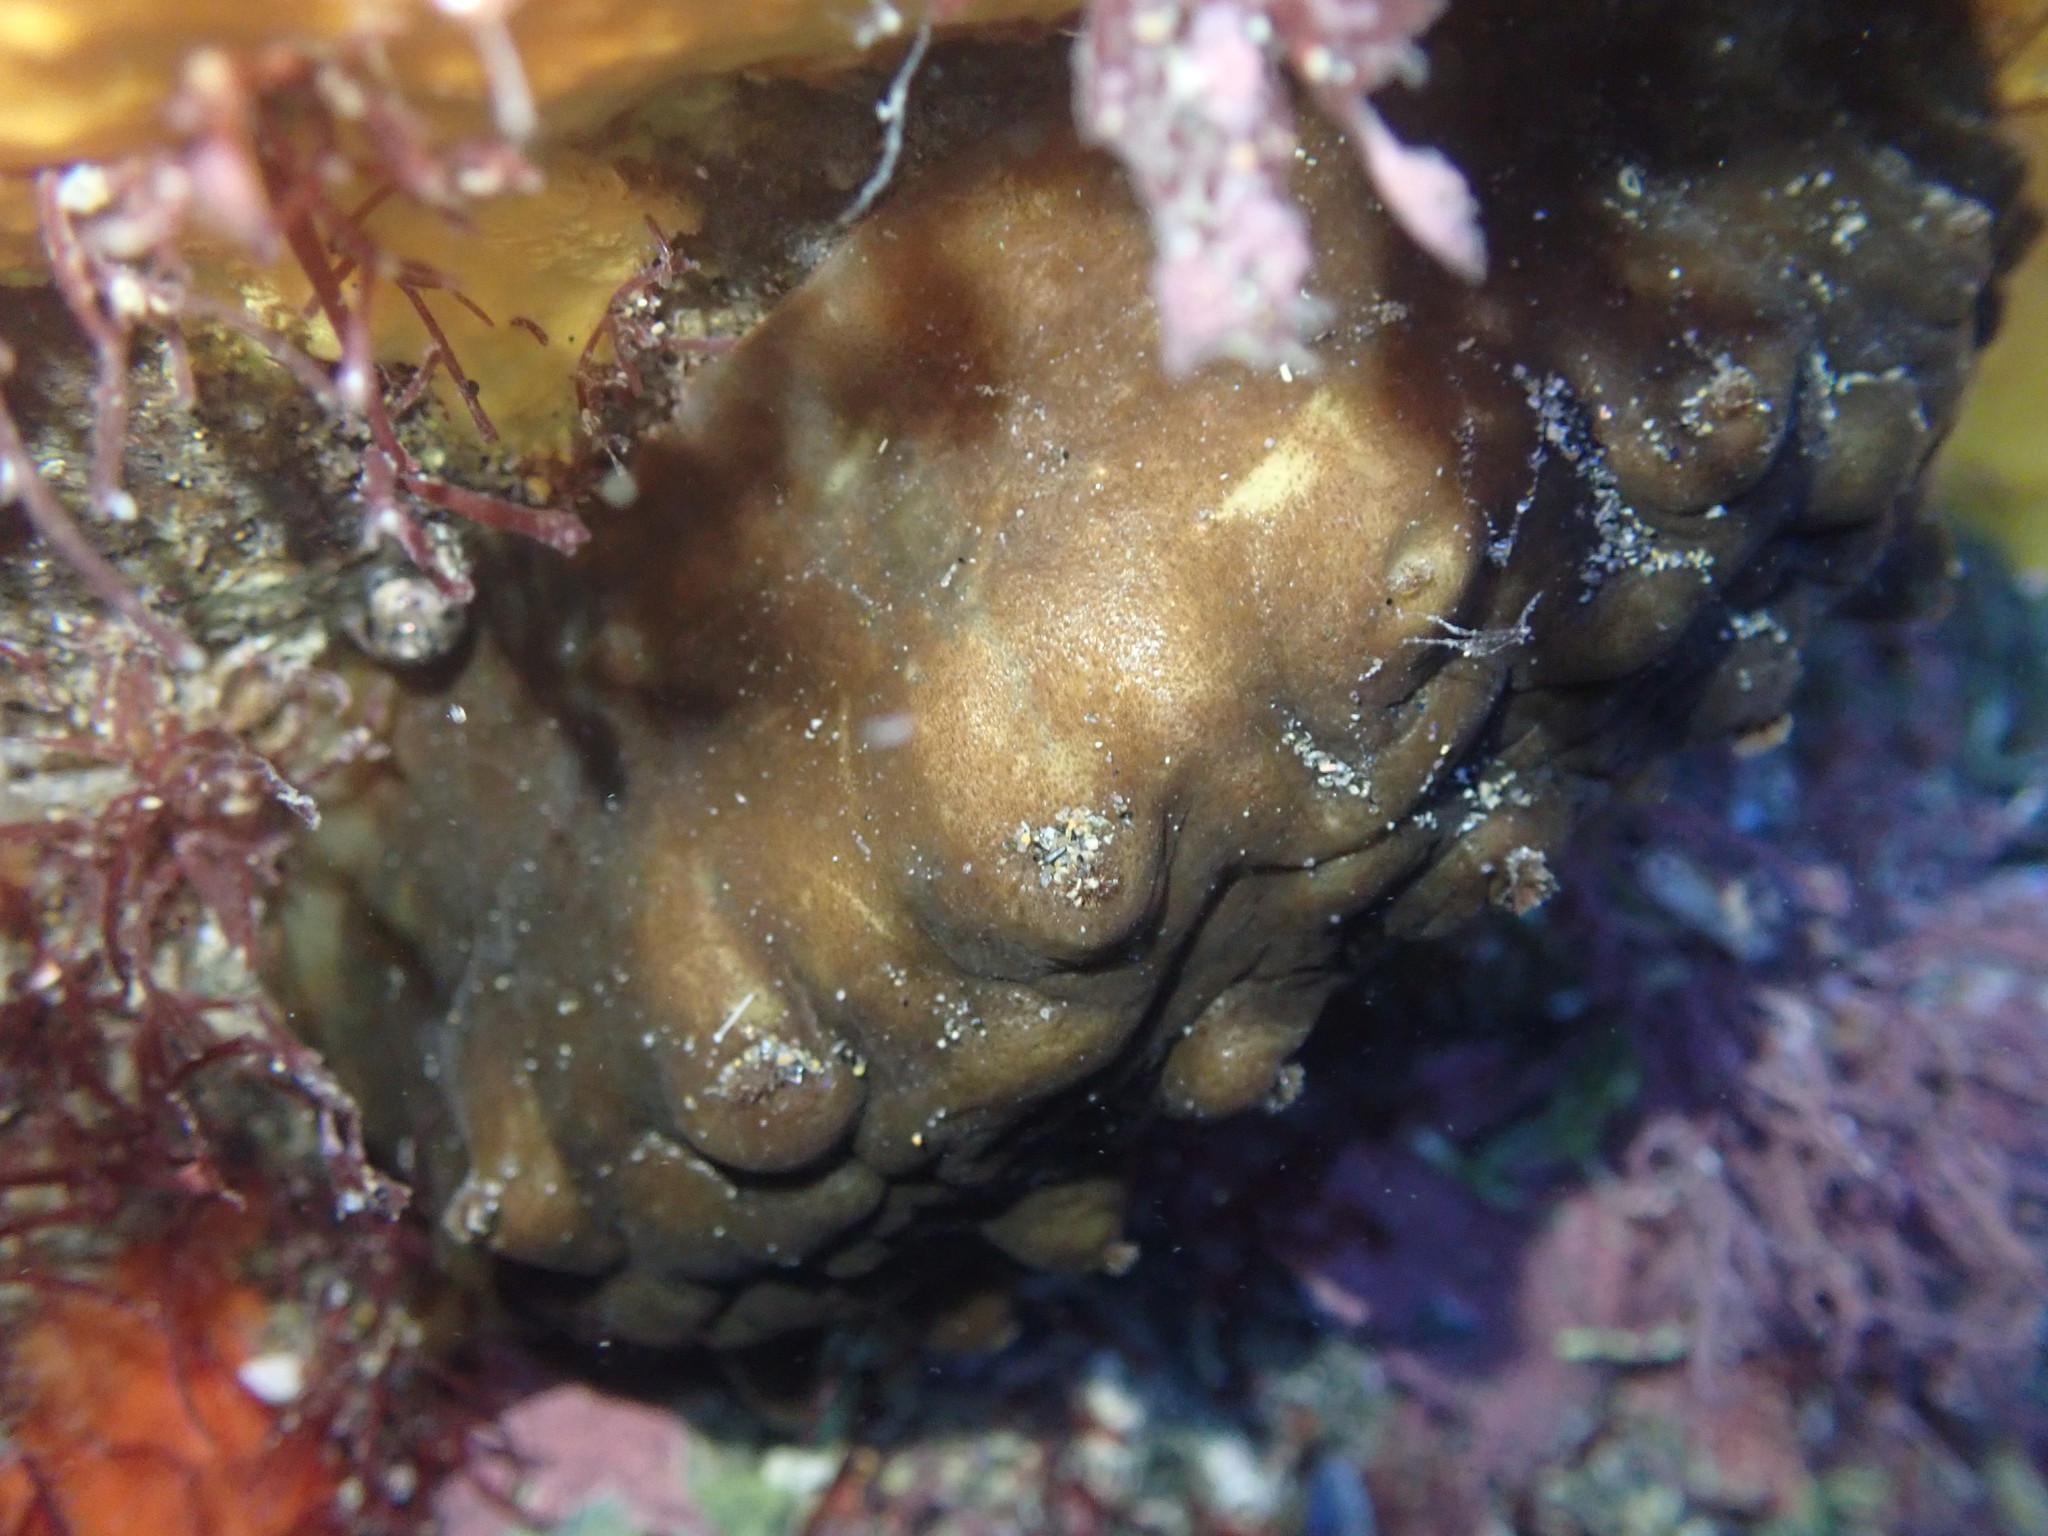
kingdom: Animalia
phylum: Mollusca
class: Polyplacophora
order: Chitonida
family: Acanthochitonidae
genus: Cryptoconchus
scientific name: Cryptoconchus porosus
